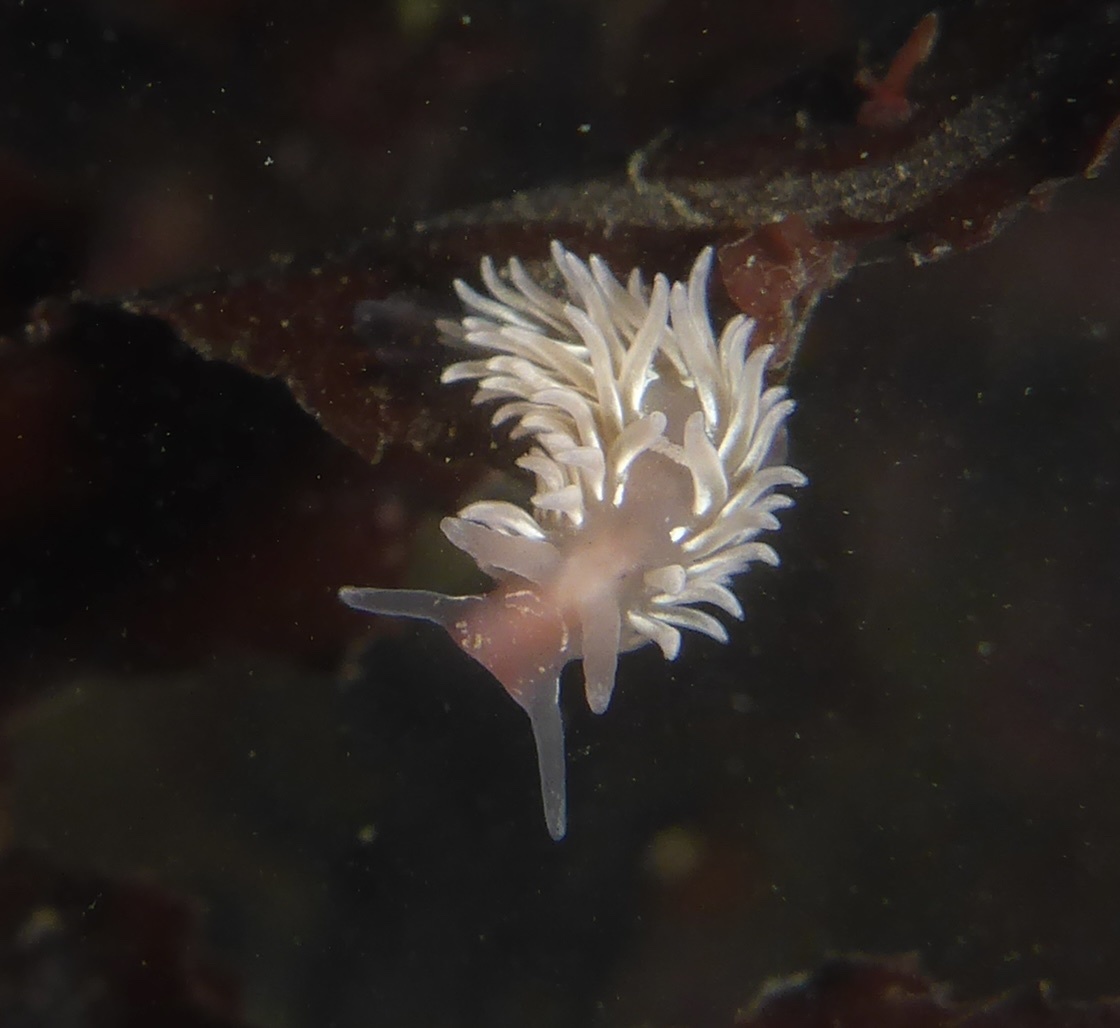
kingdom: Animalia
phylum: Mollusca
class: Gastropoda
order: Nudibranchia
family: Aeolidiidae
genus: Aeolidia
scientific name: Aeolidia loui
